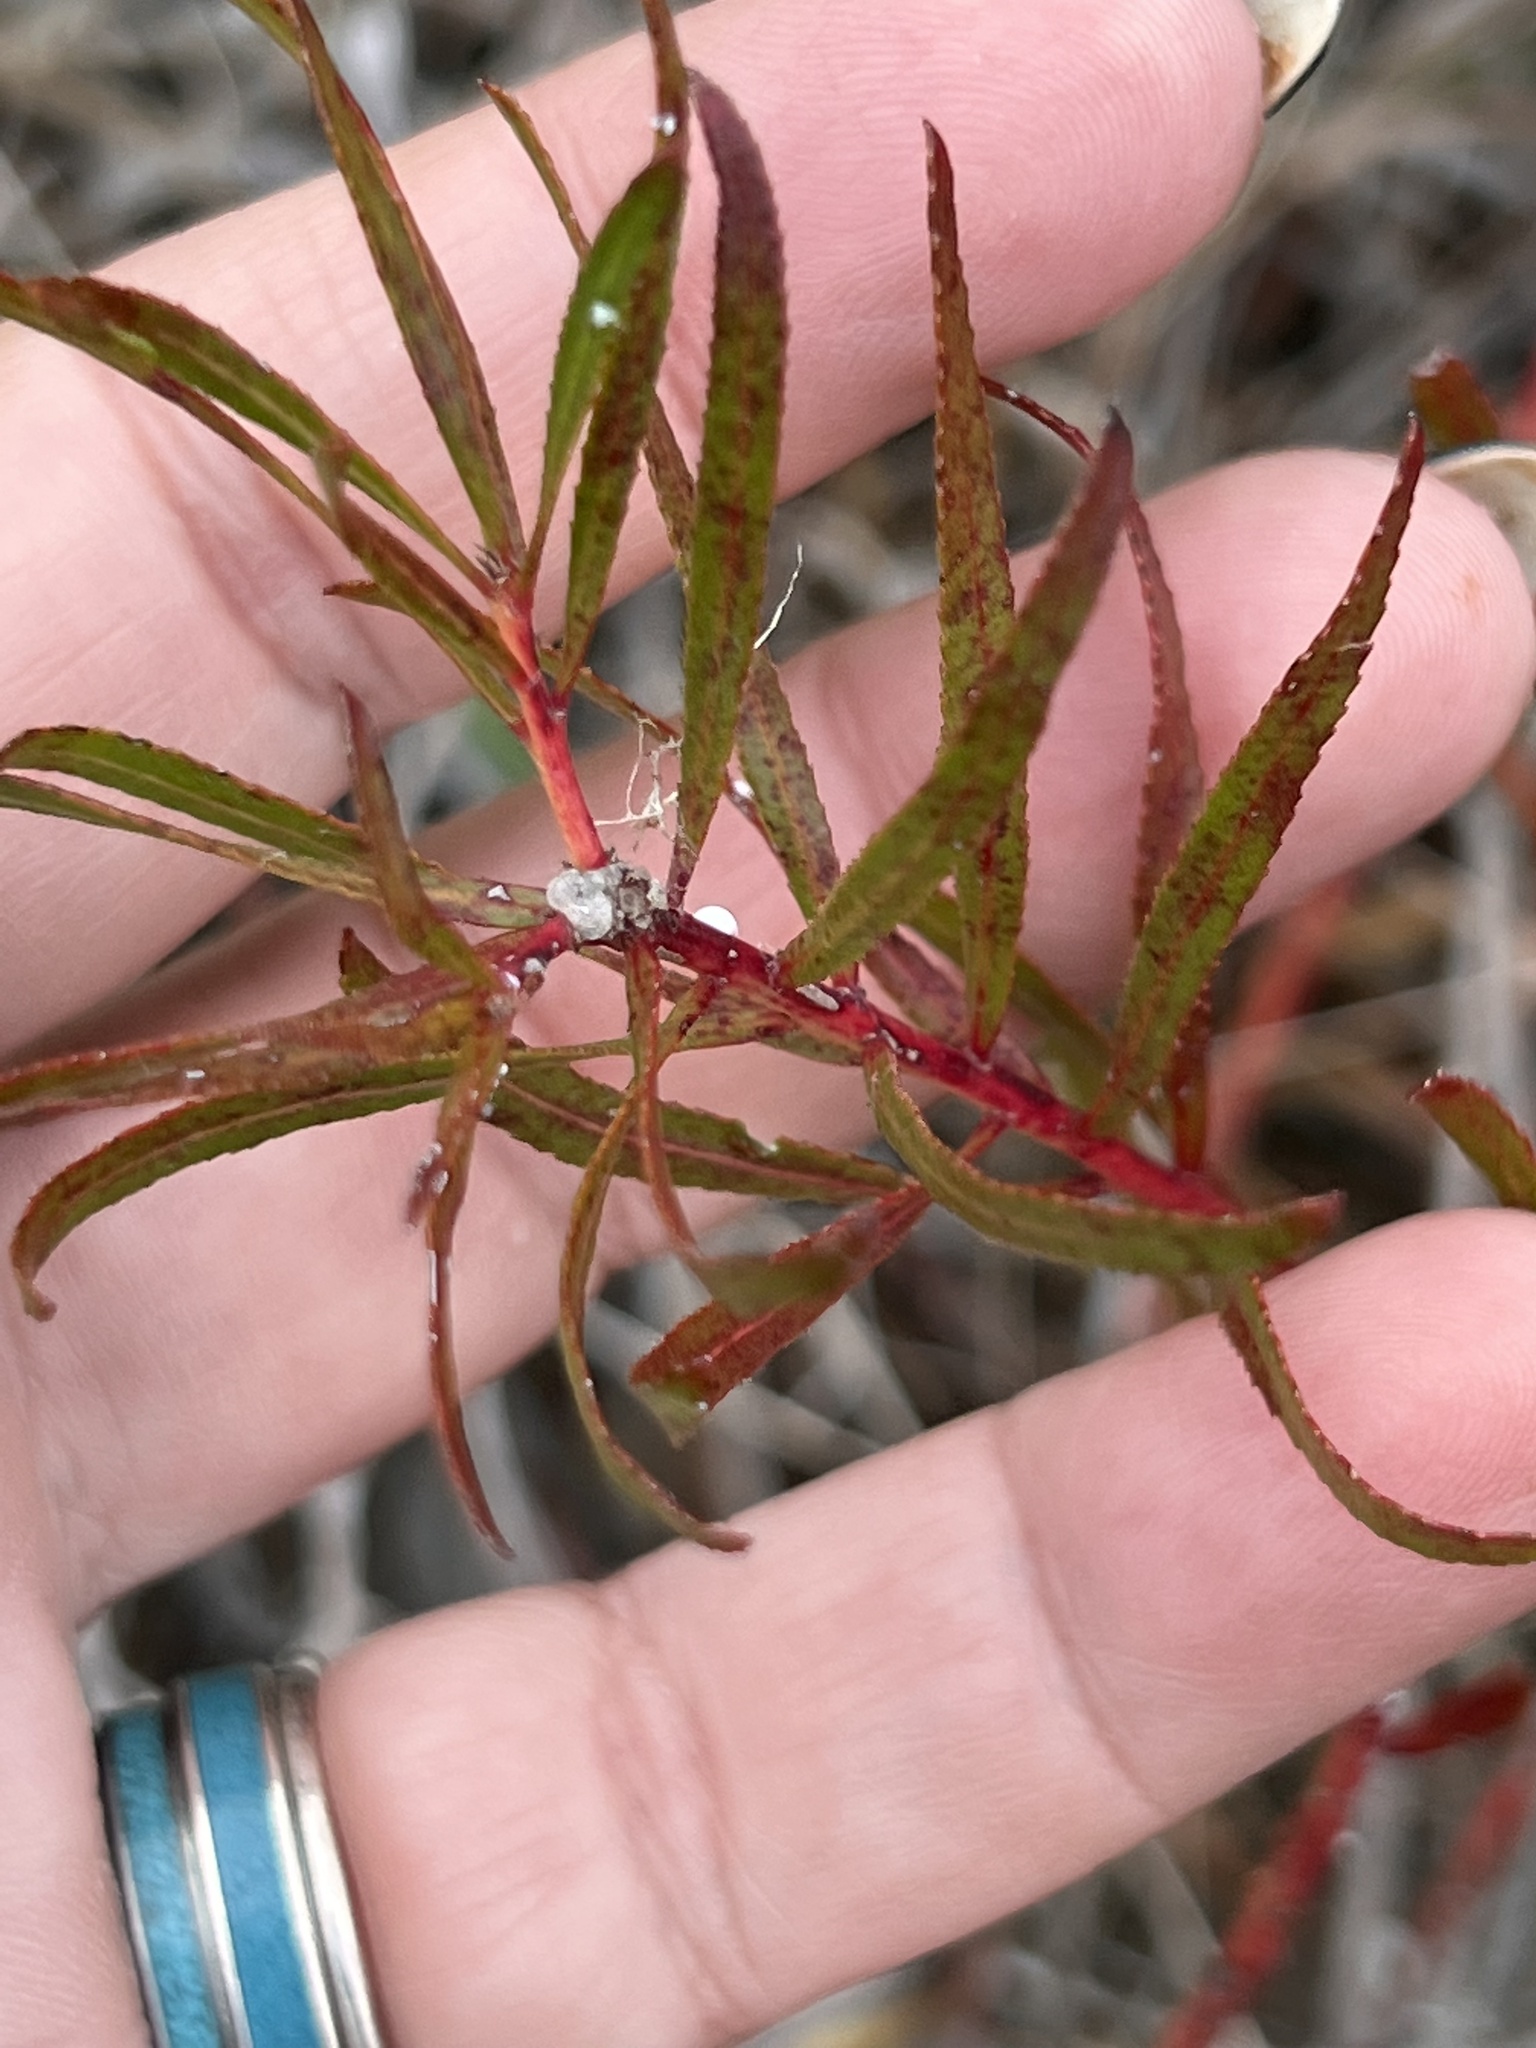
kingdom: Plantae
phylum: Tracheophyta
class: Magnoliopsida
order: Malpighiales
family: Euphorbiaceae
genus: Stillingia
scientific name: Stillingia texana
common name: Texas stillingia
